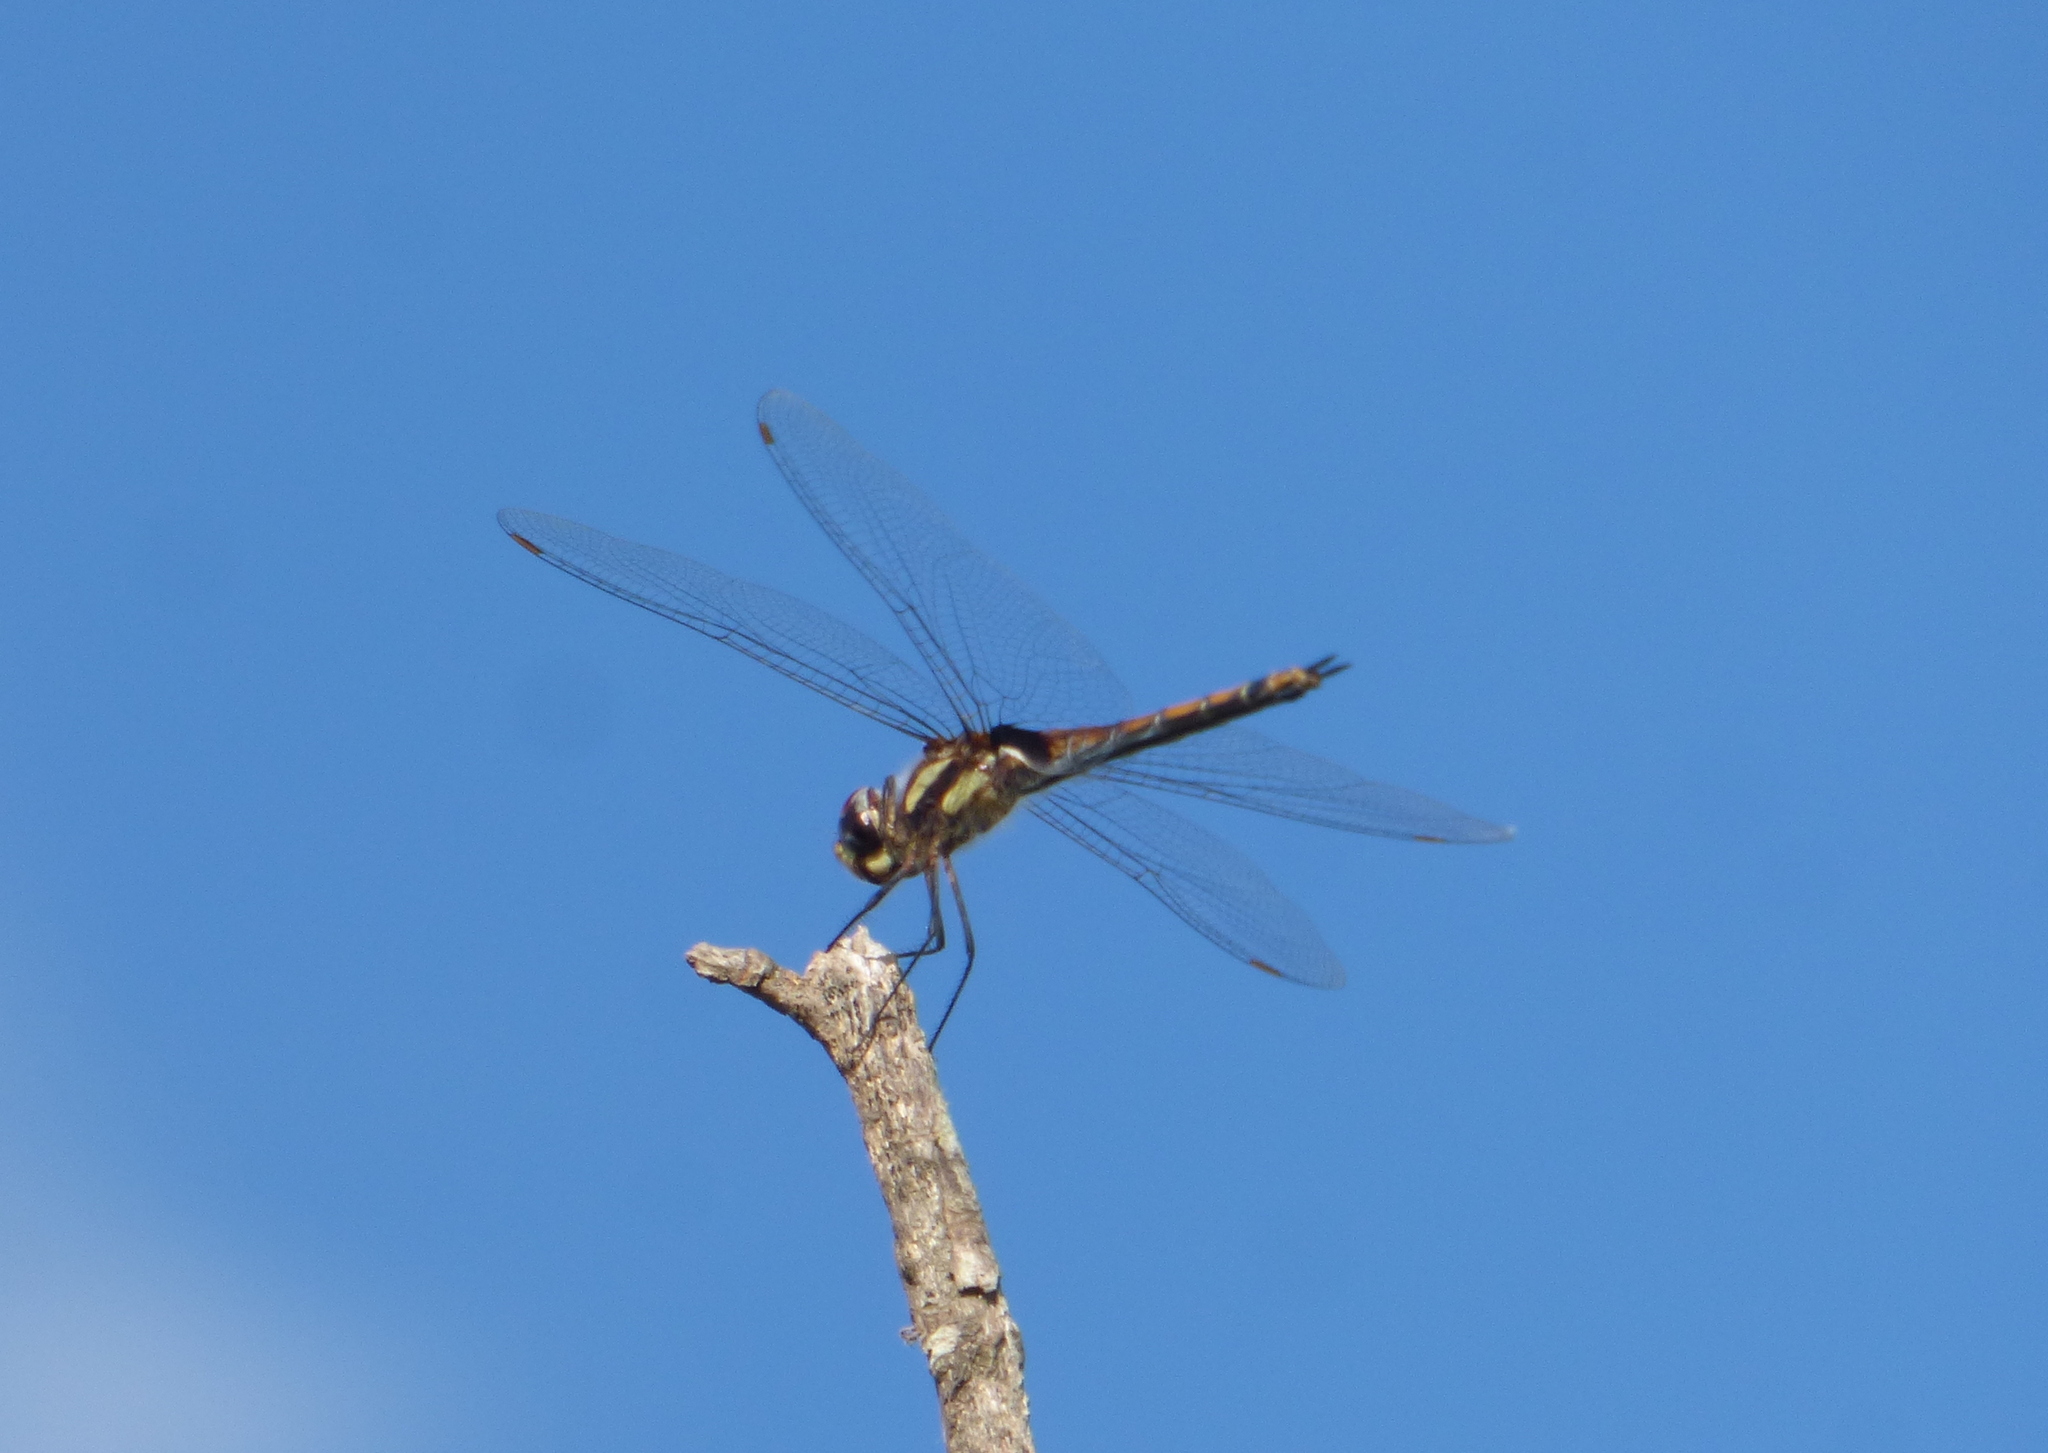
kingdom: Animalia
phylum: Arthropoda
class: Insecta
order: Odonata
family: Libellulidae
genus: Tramea
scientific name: Tramea cophysa
